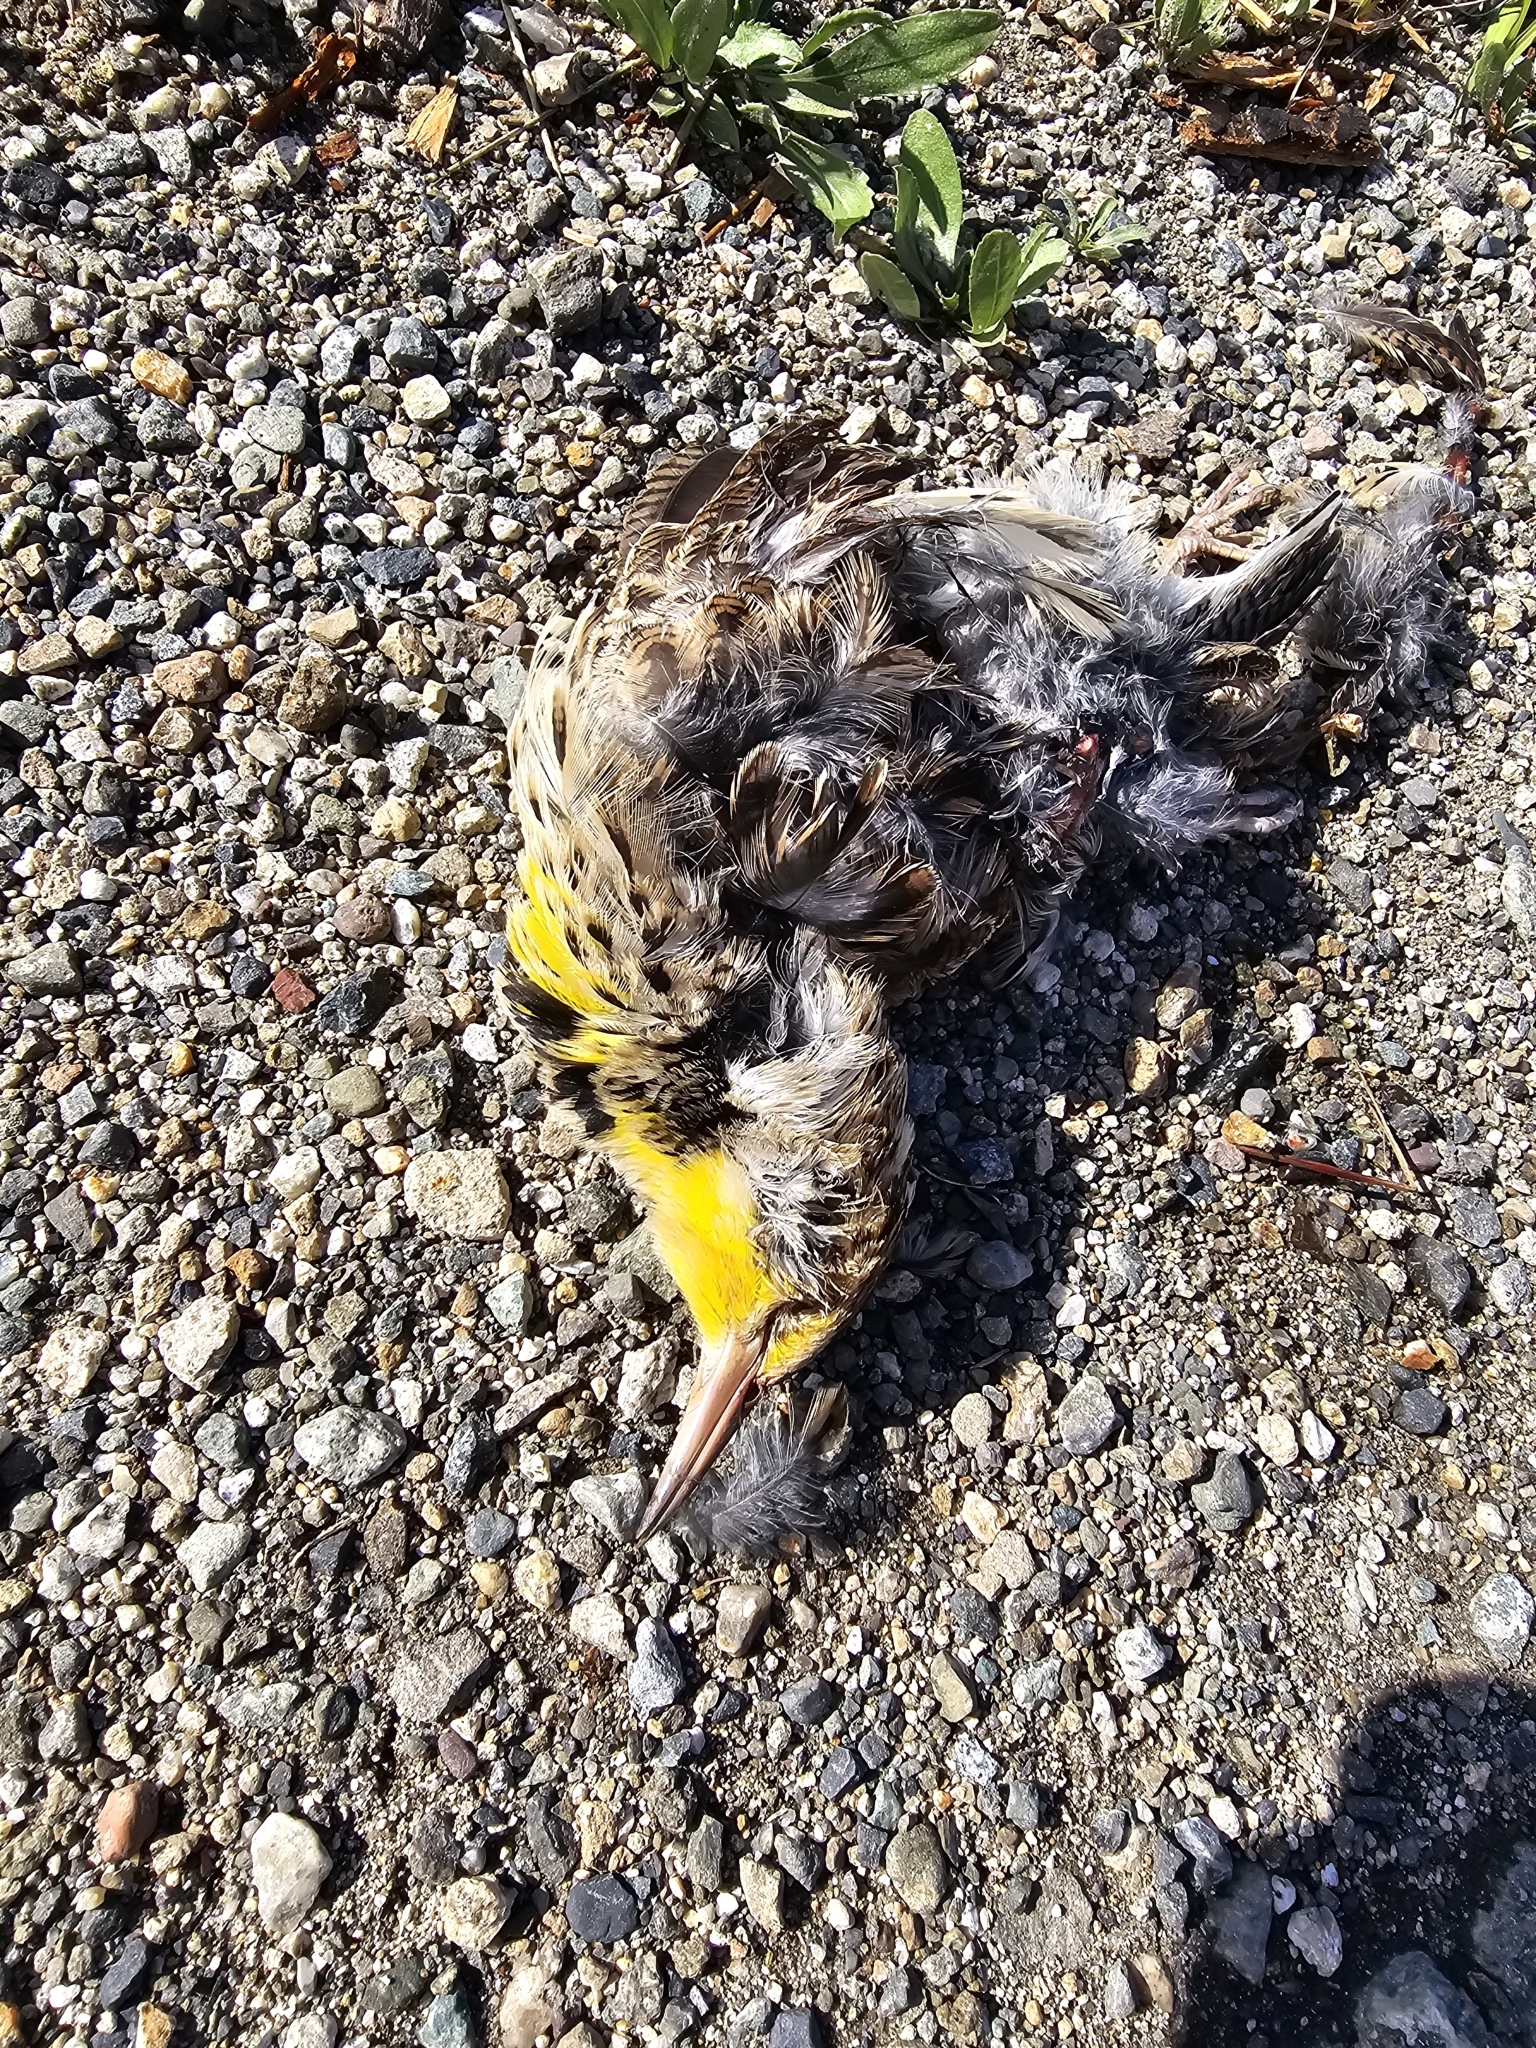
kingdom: Animalia
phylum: Chordata
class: Aves
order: Passeriformes
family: Icteridae
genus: Sturnella
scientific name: Sturnella neglecta
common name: Western meadowlark
